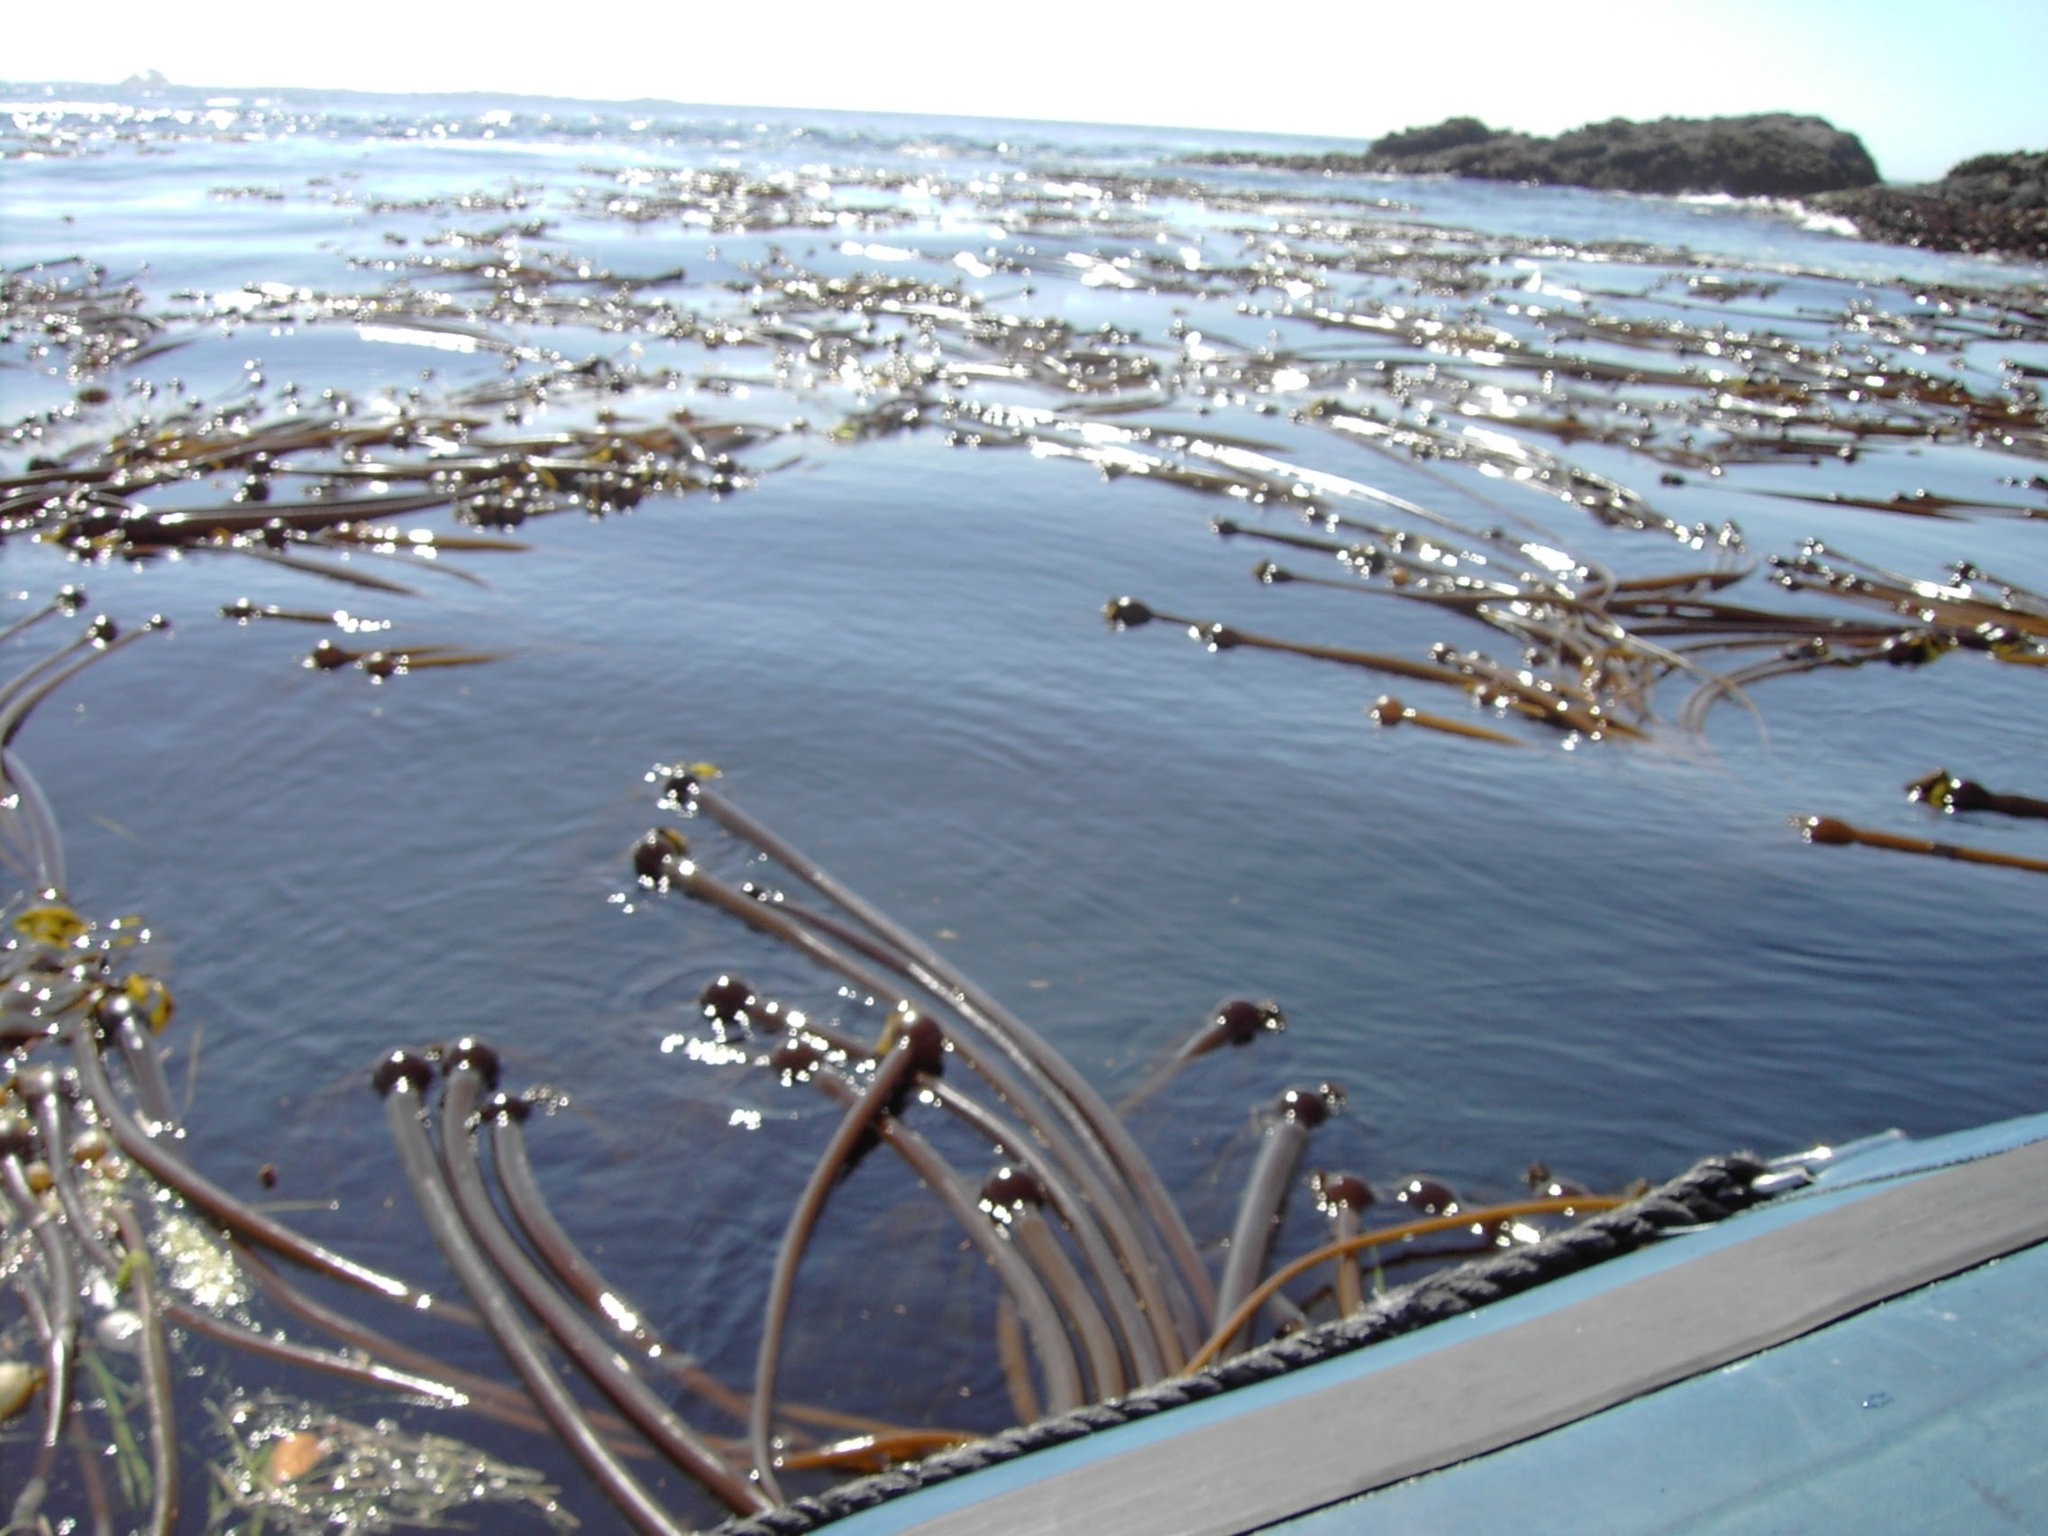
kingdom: Chromista
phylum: Ochrophyta
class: Phaeophyceae
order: Laminariales
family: Laminariaceae
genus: Nereocystis
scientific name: Nereocystis luetkeana
